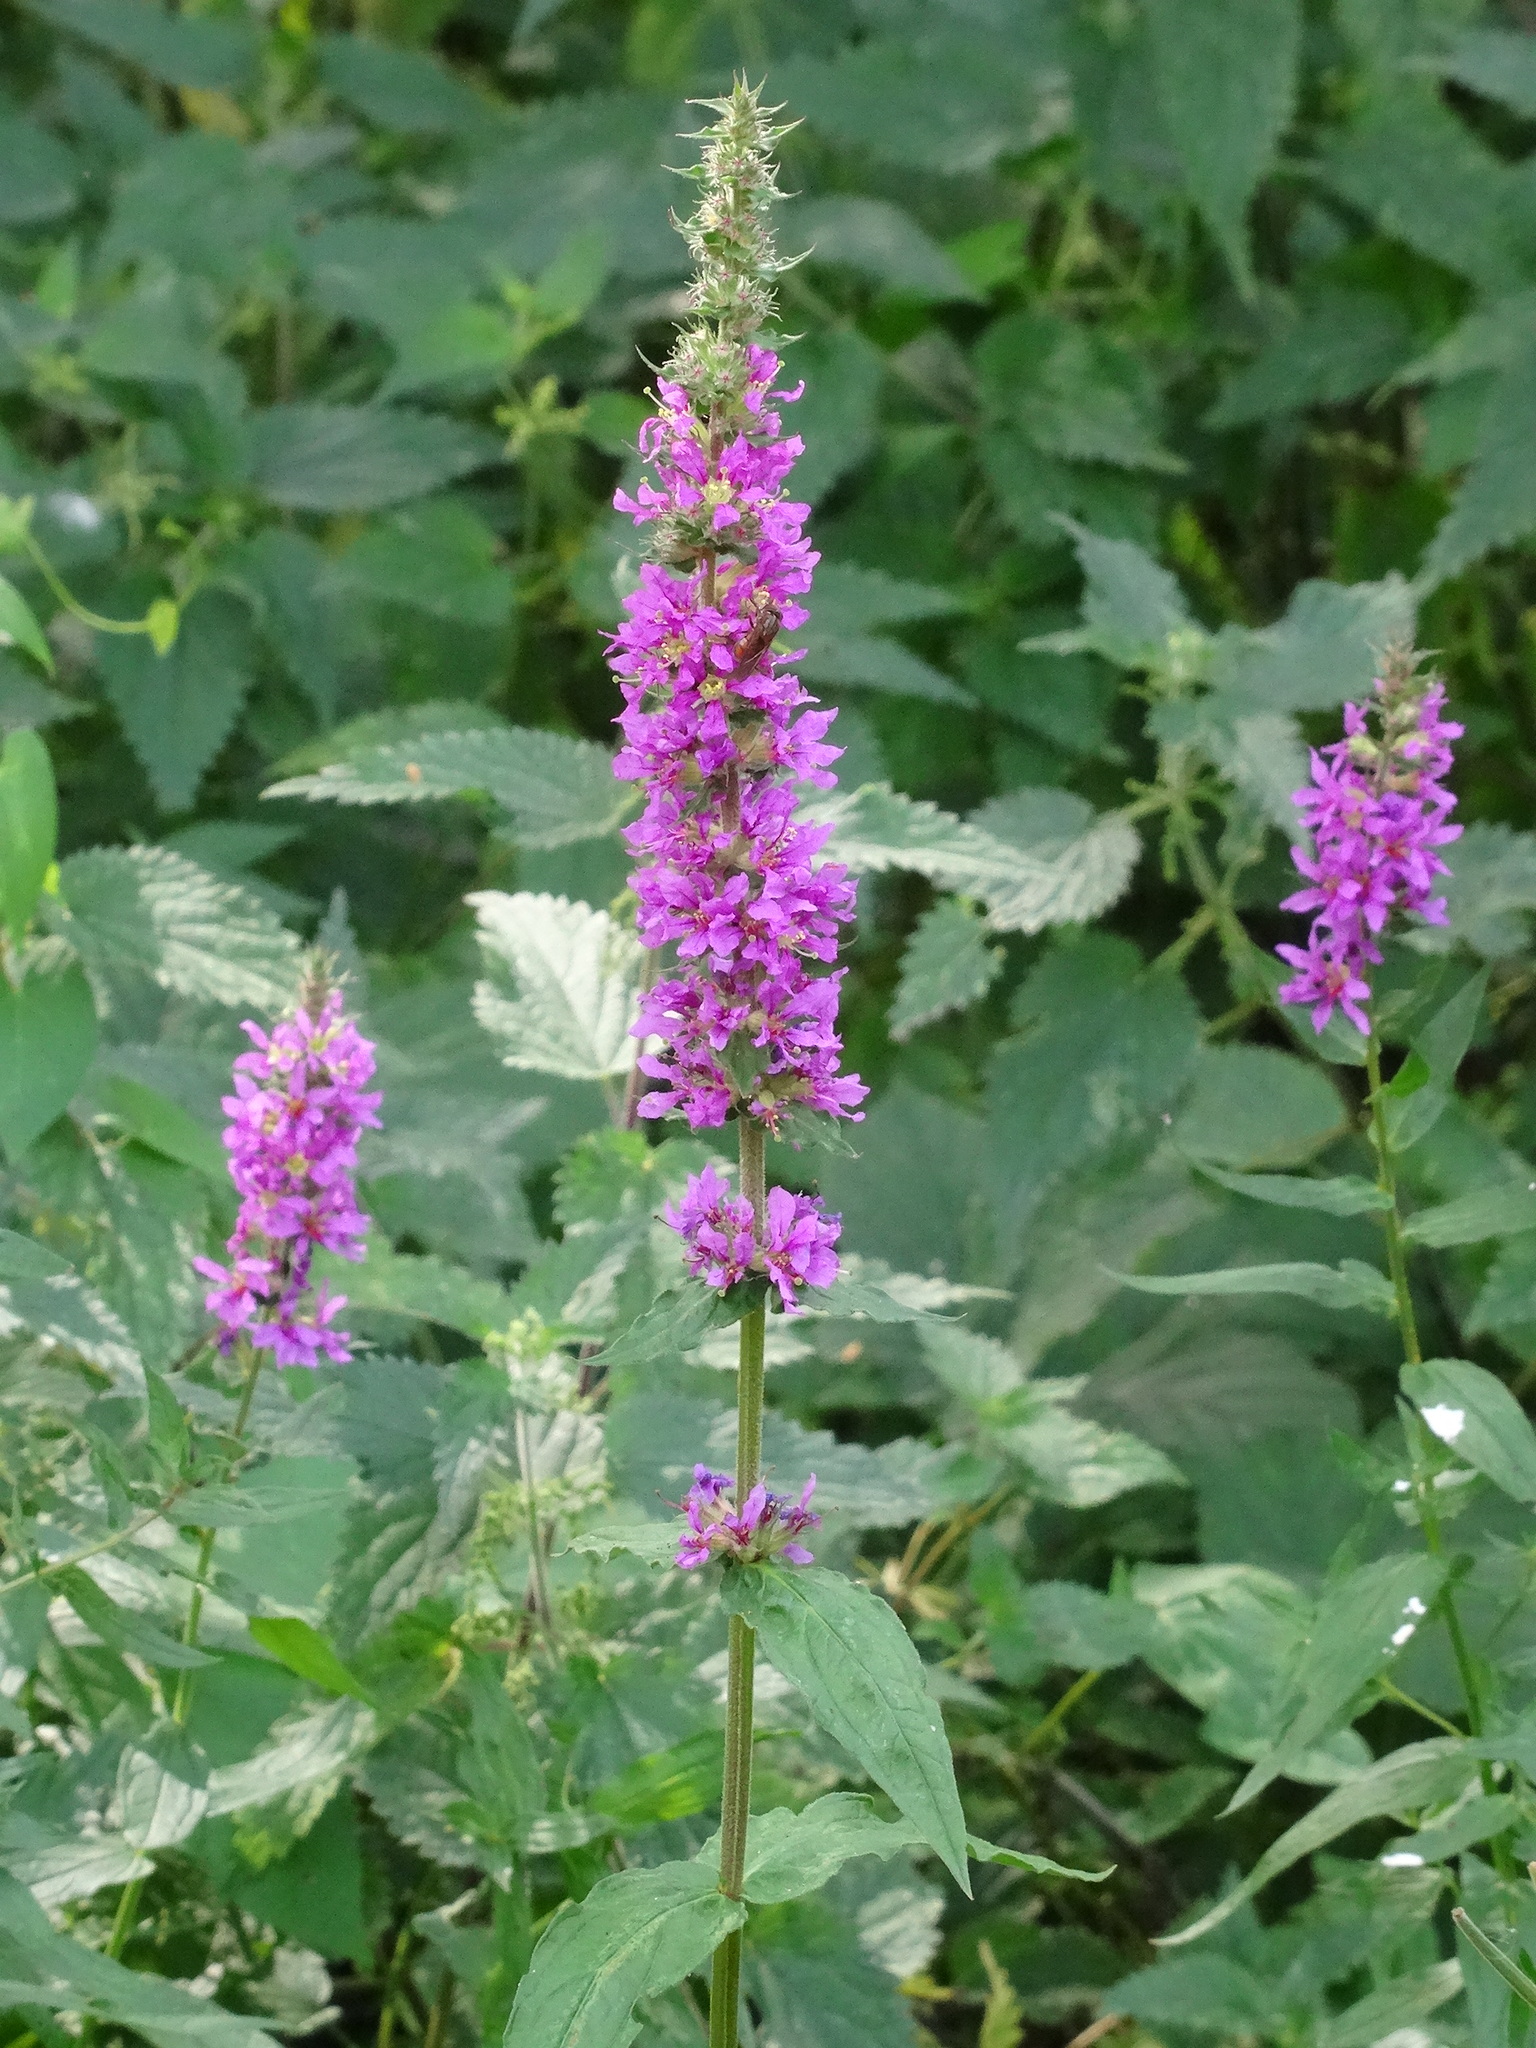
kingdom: Plantae
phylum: Tracheophyta
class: Magnoliopsida
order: Myrtales
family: Lythraceae
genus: Lythrum
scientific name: Lythrum salicaria
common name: Purple loosestrife
